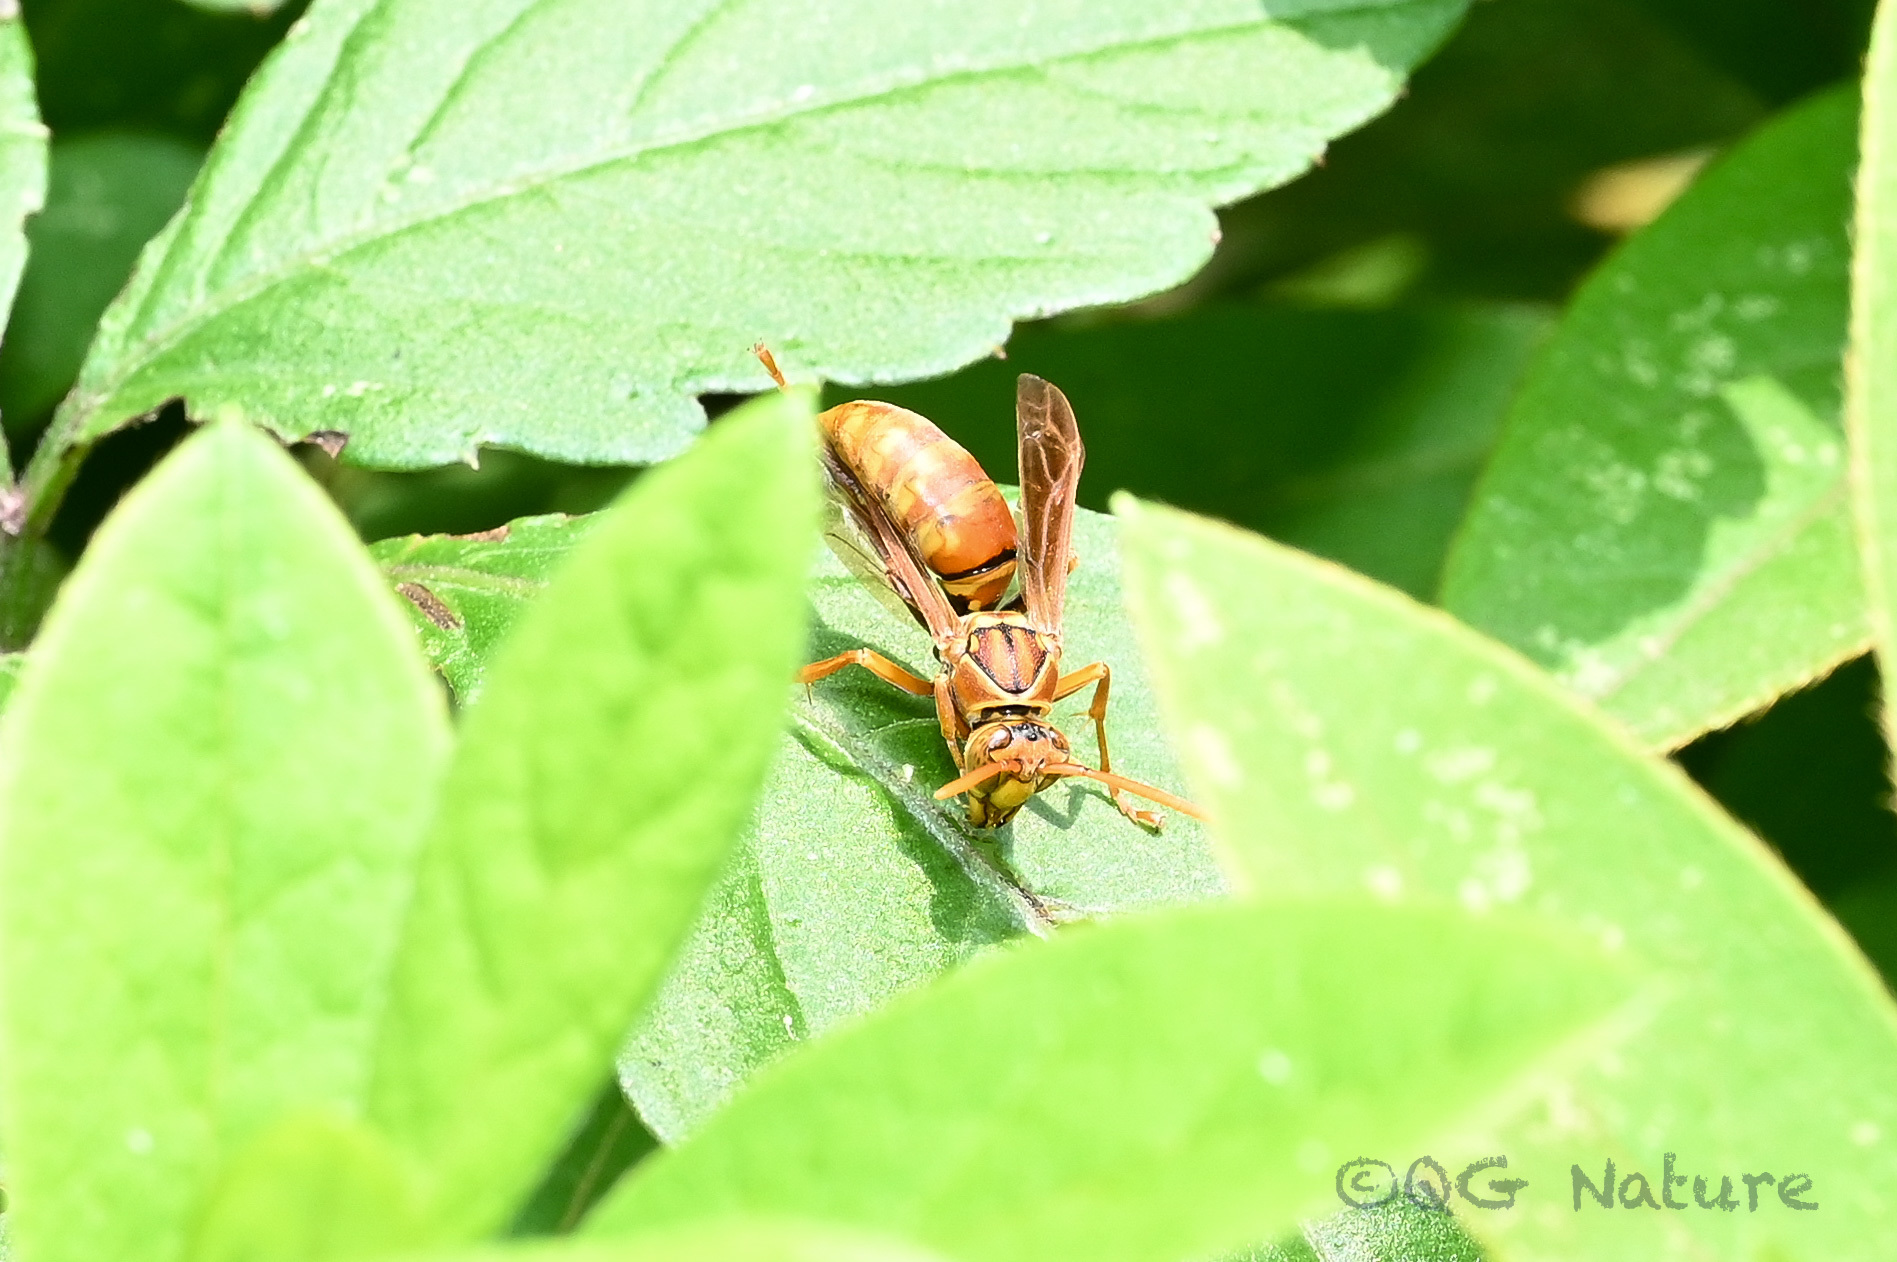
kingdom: Animalia
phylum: Arthropoda
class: Insecta
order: Hymenoptera
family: Eumenidae
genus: Polistes
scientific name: Polistes japonicus
